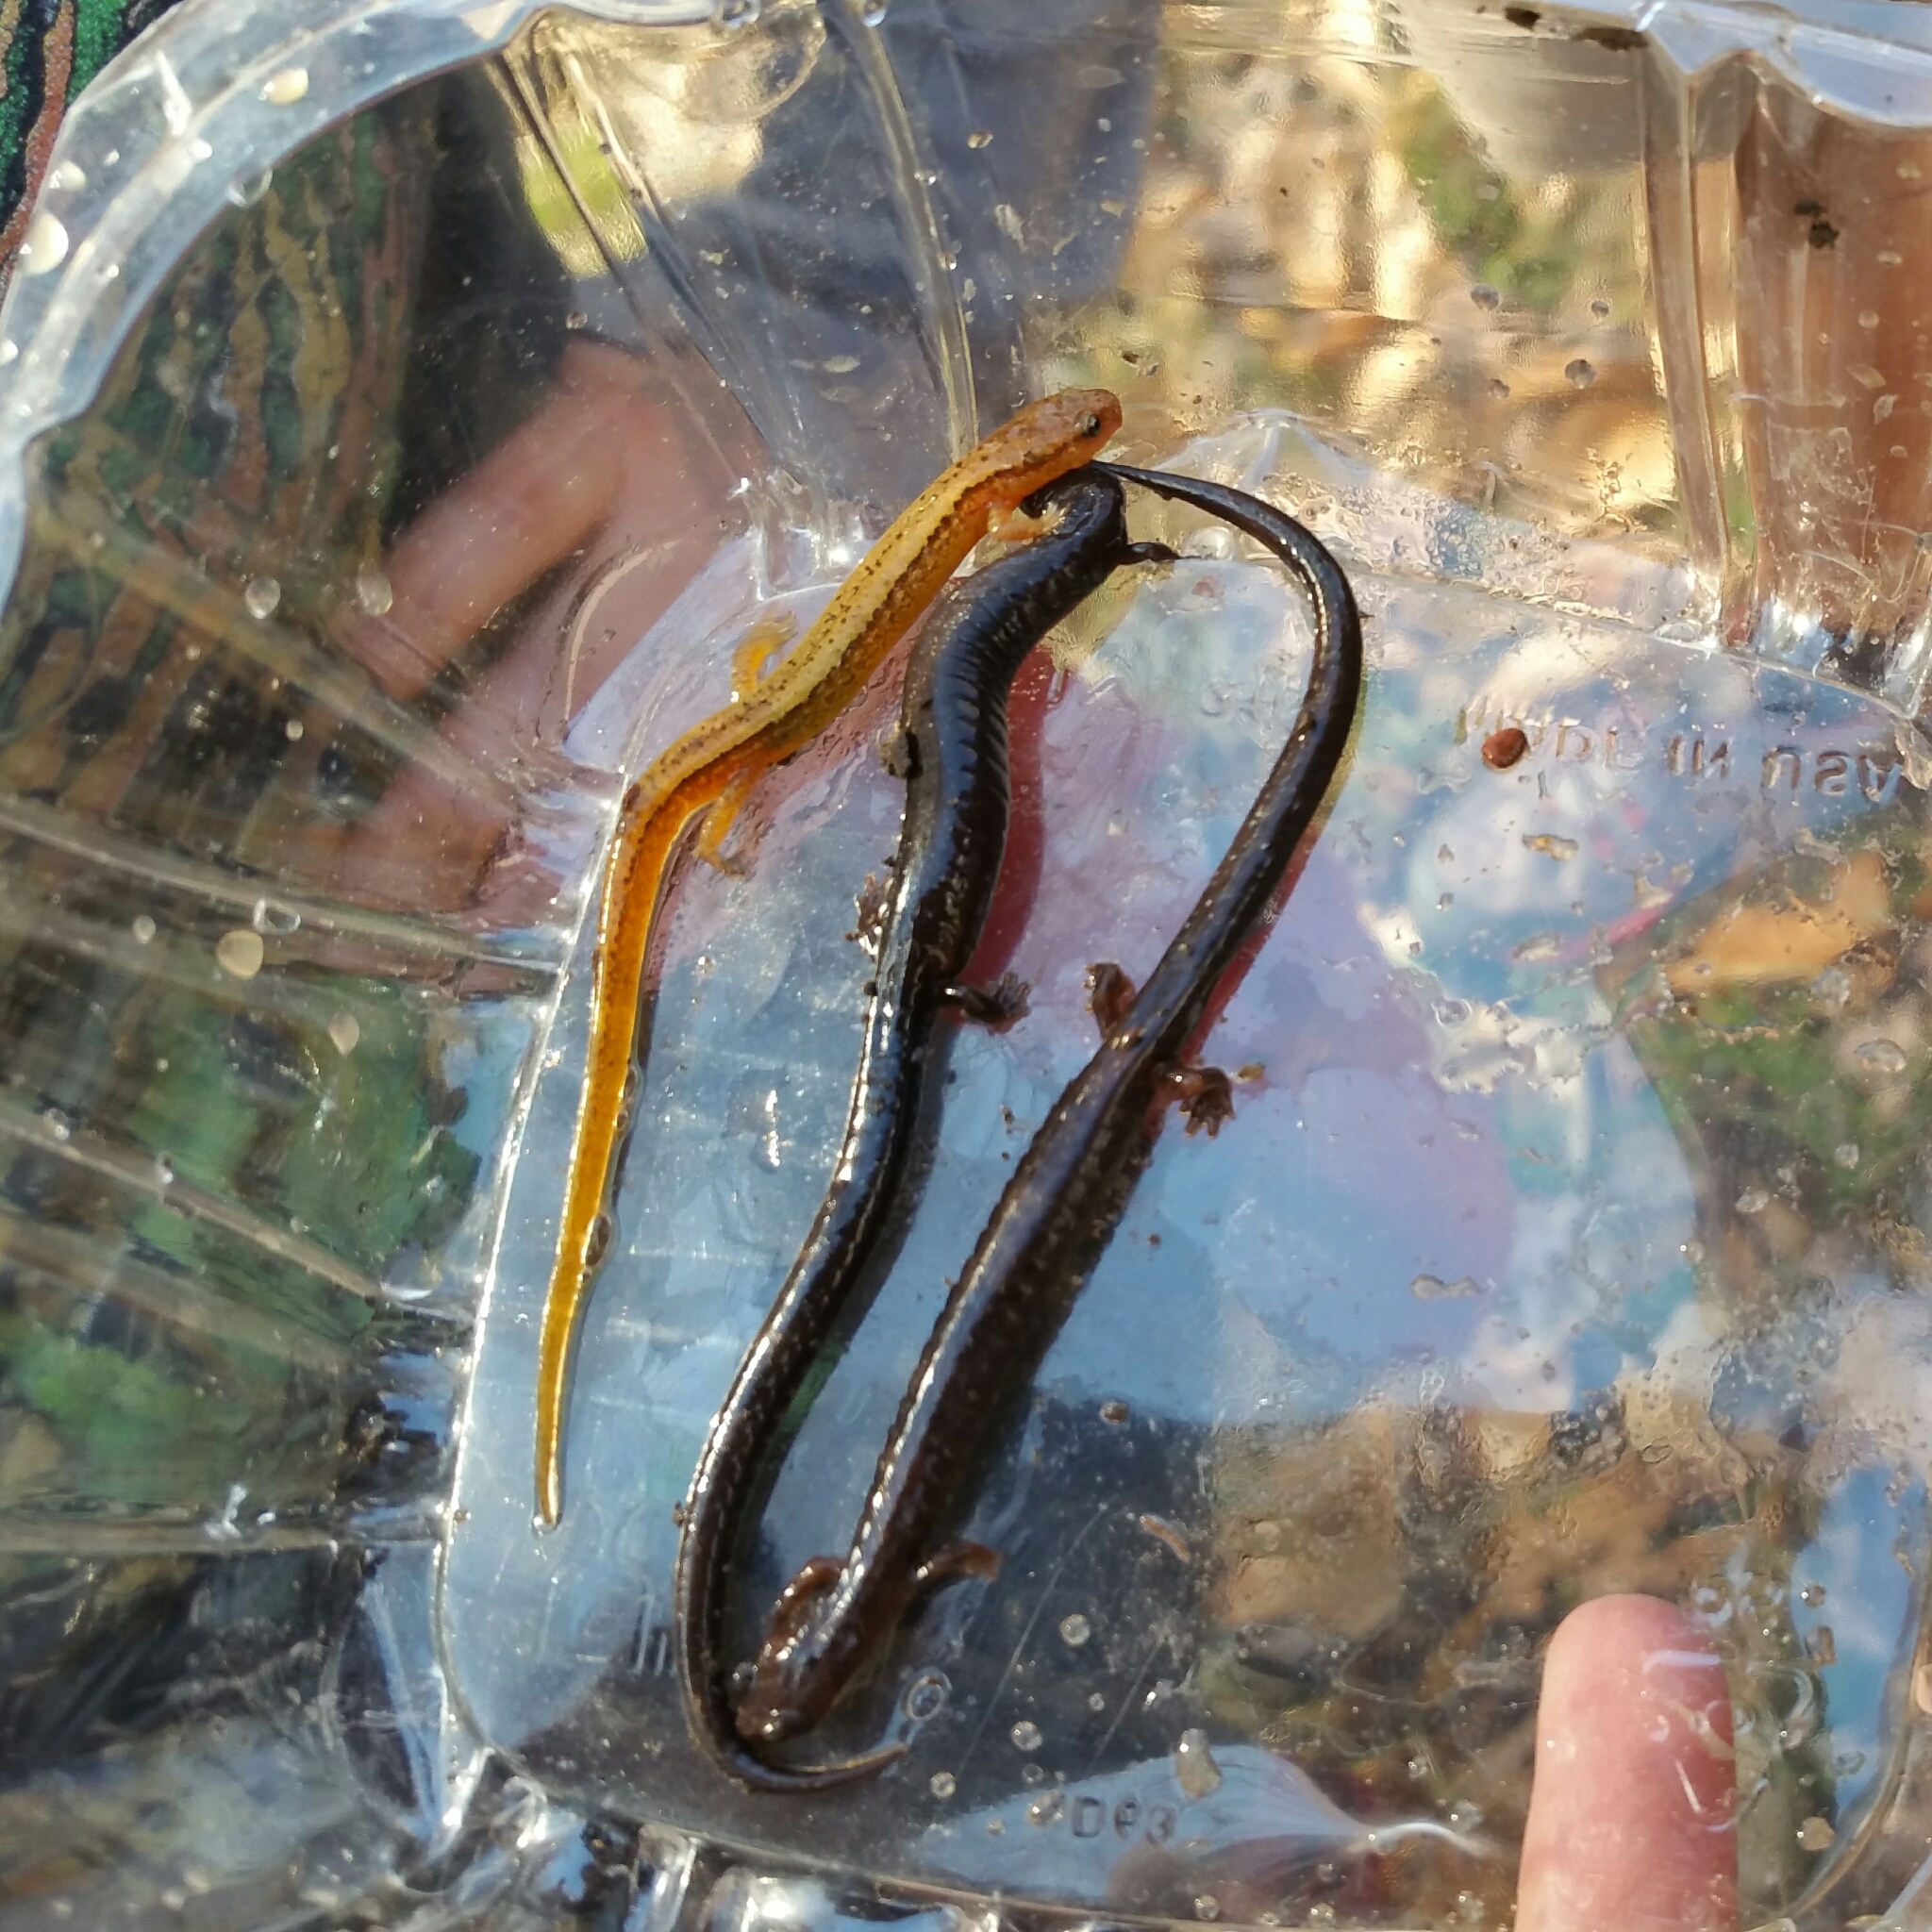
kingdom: Animalia
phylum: Chordata
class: Amphibia
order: Caudata
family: Plethodontidae
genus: Plethodon
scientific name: Plethodon richmondi
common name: Ravine salamander
